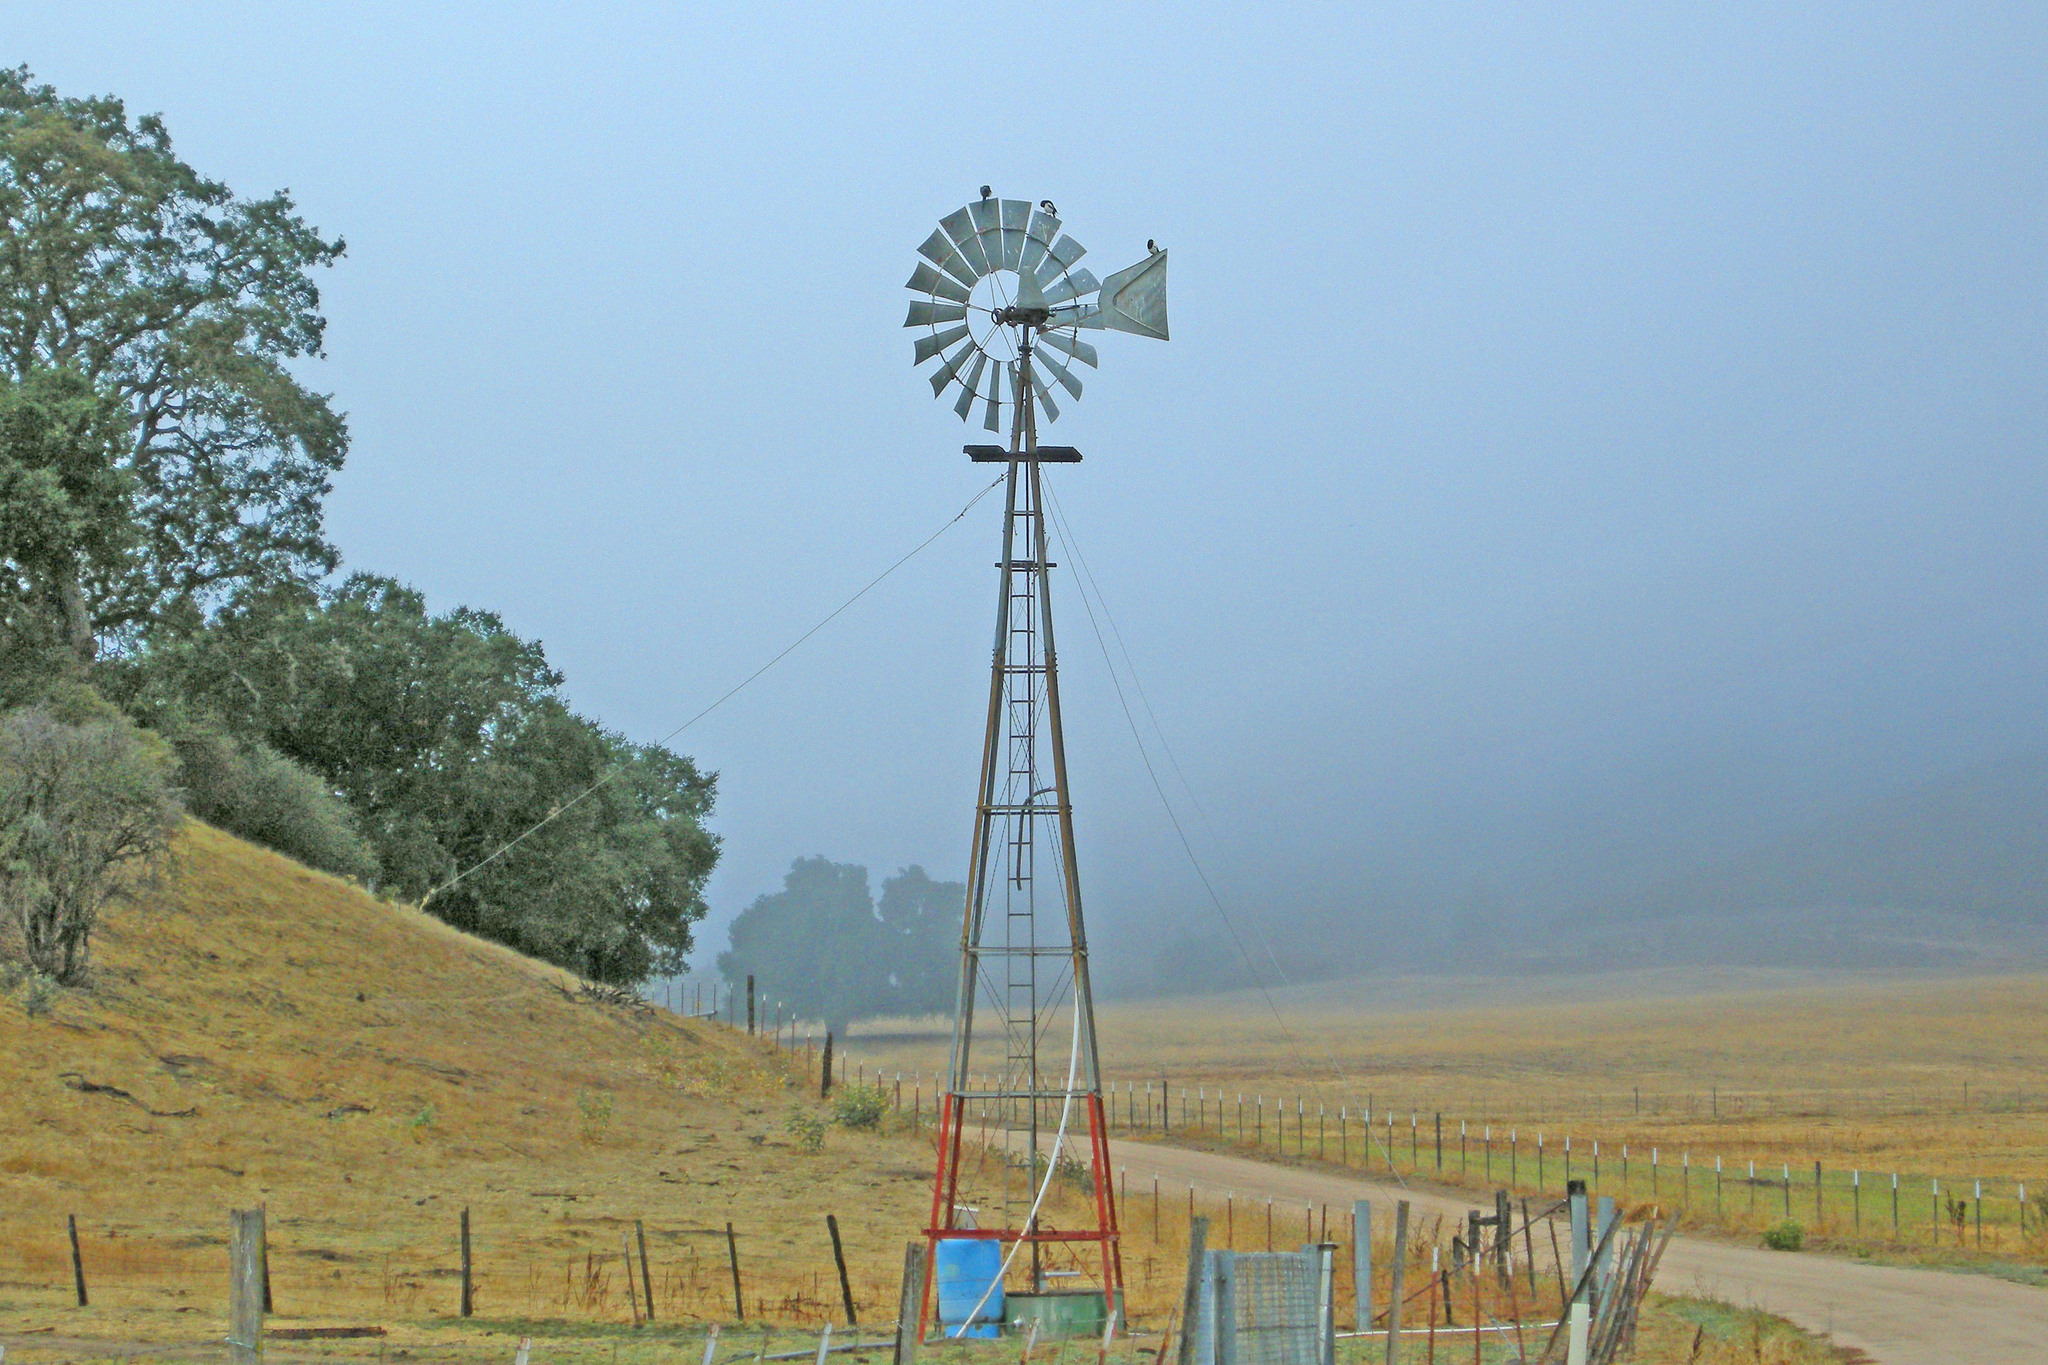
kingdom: Animalia
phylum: Chordata
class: Aves
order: Passeriformes
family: Corvidae
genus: Pica
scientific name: Pica nuttalli
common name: Yellow-billed magpie
